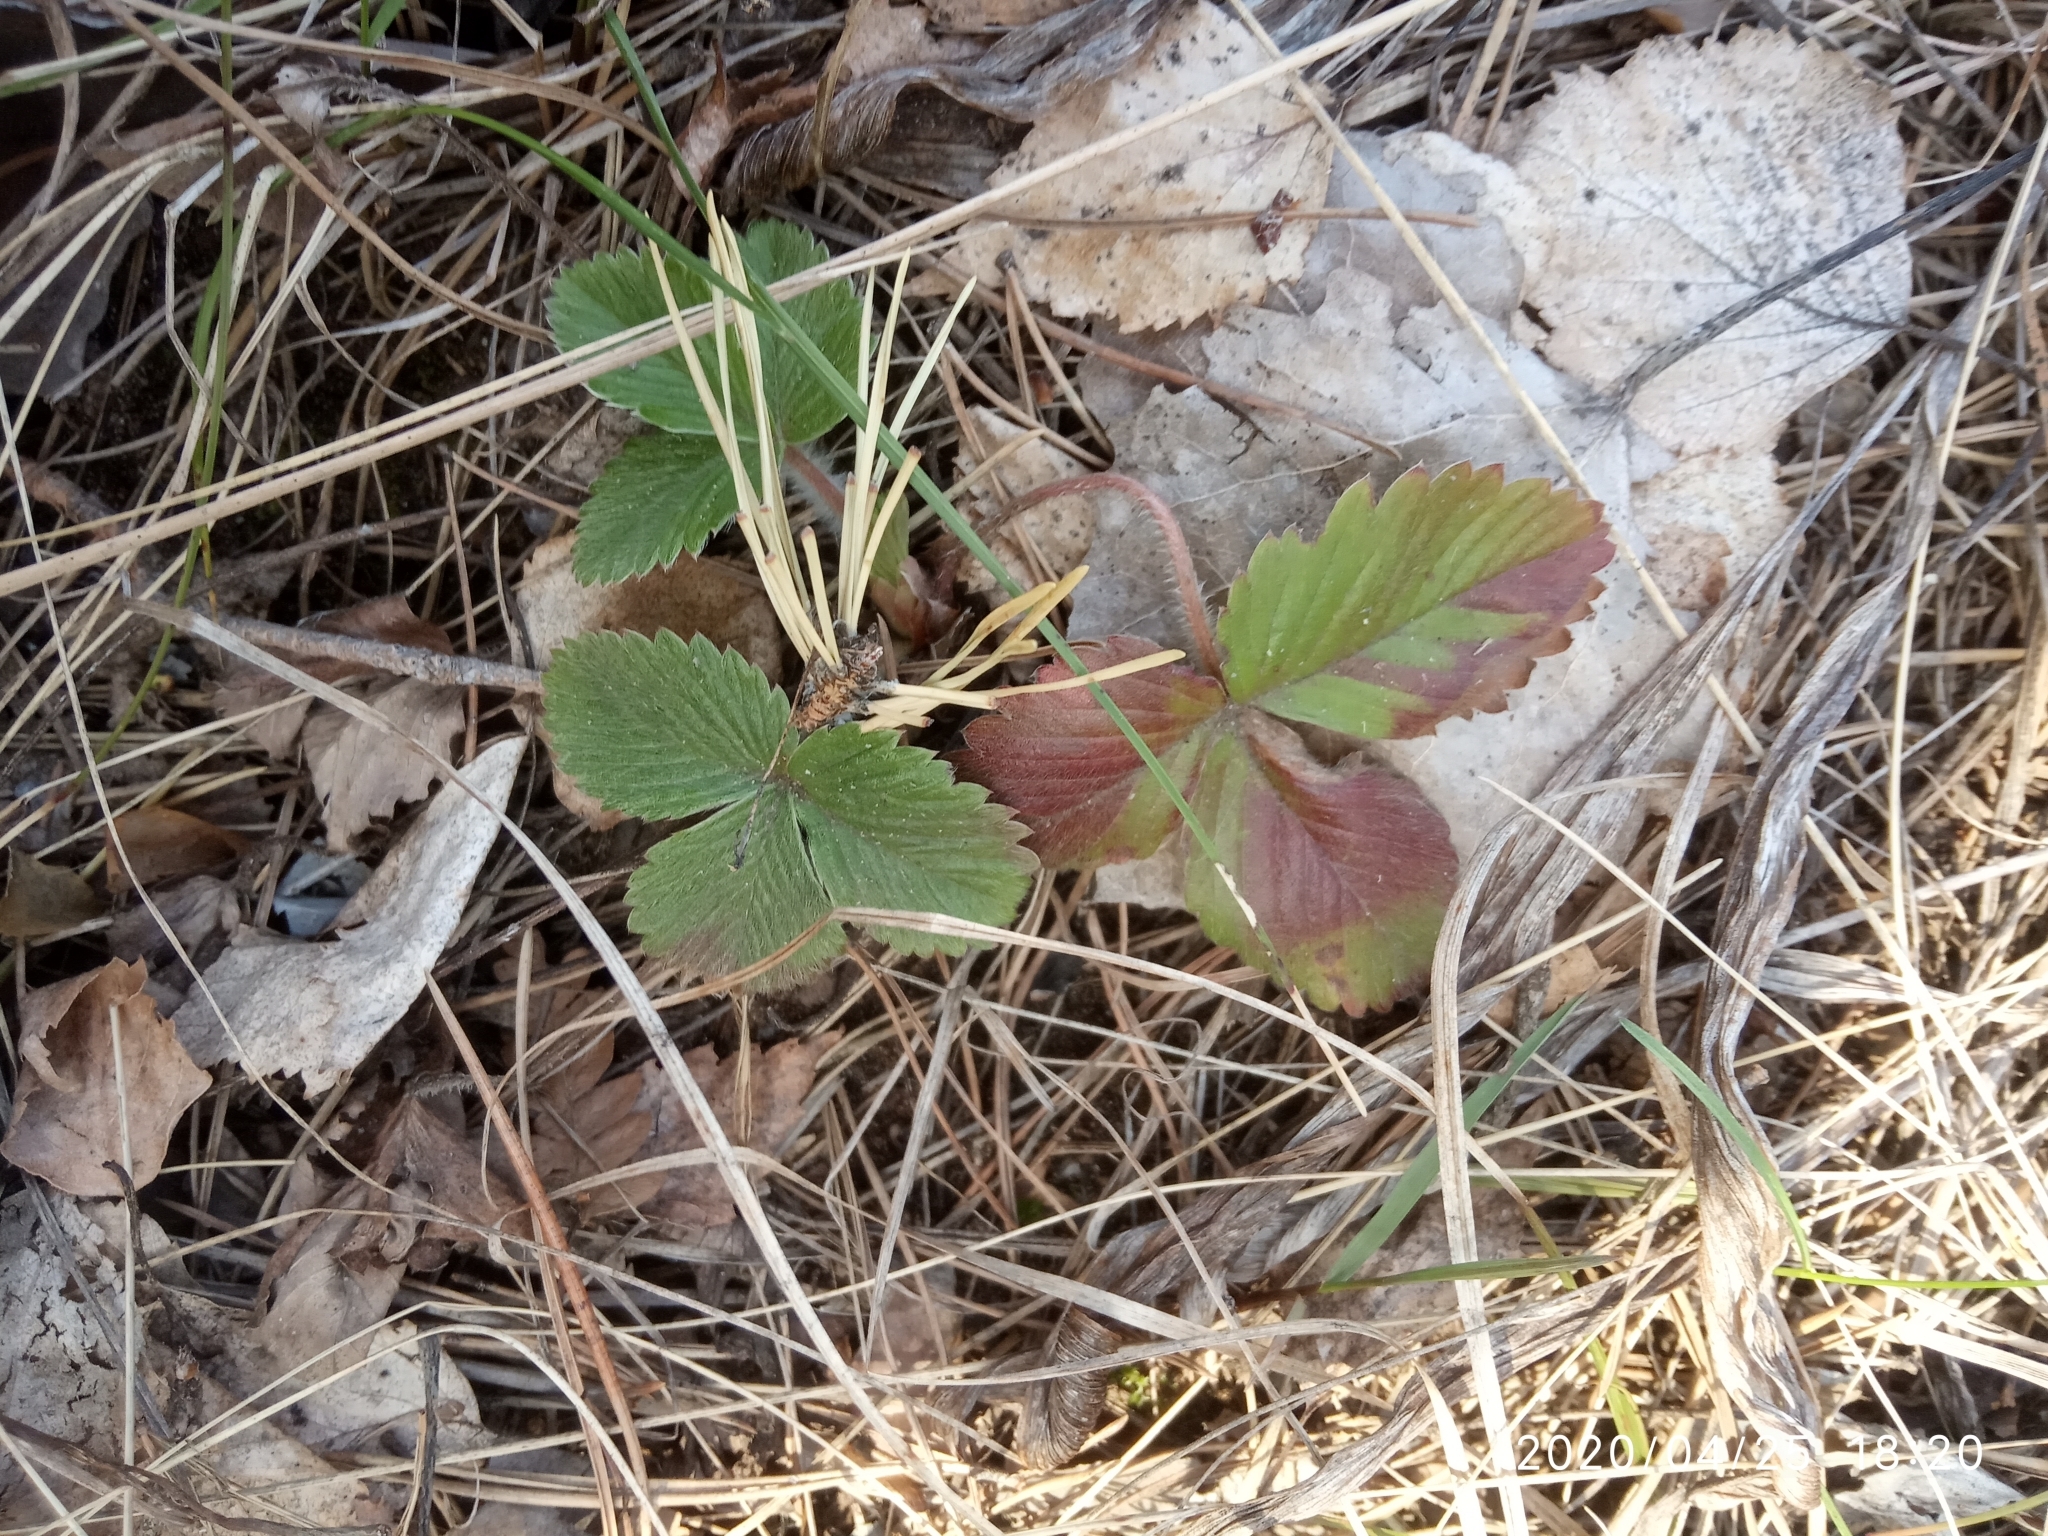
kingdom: Plantae
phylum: Tracheophyta
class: Magnoliopsida
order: Rosales
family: Rosaceae
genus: Fragaria
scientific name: Fragaria vesca
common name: Wild strawberry
